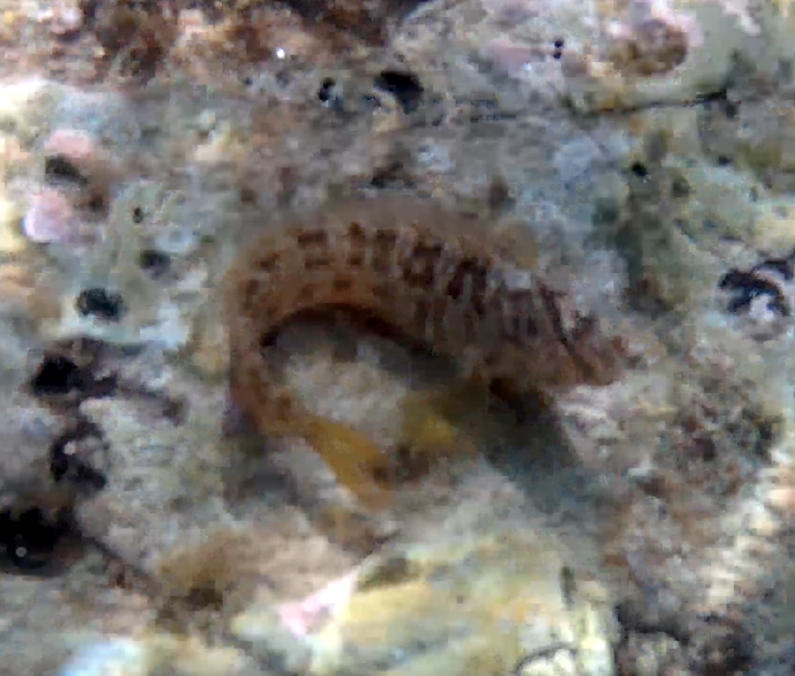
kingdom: Animalia
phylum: Chordata
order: Perciformes
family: Blenniidae
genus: Salaria
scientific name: Salaria pavo
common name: Peacock blenny
